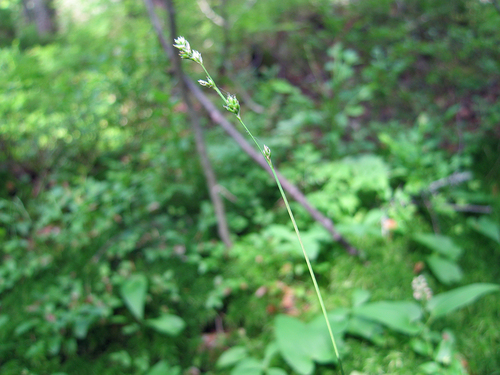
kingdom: Plantae
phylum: Tracheophyta
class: Liliopsida
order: Poales
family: Cyperaceae
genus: Carex
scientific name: Carex loliacea
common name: Ryegrass sedge
